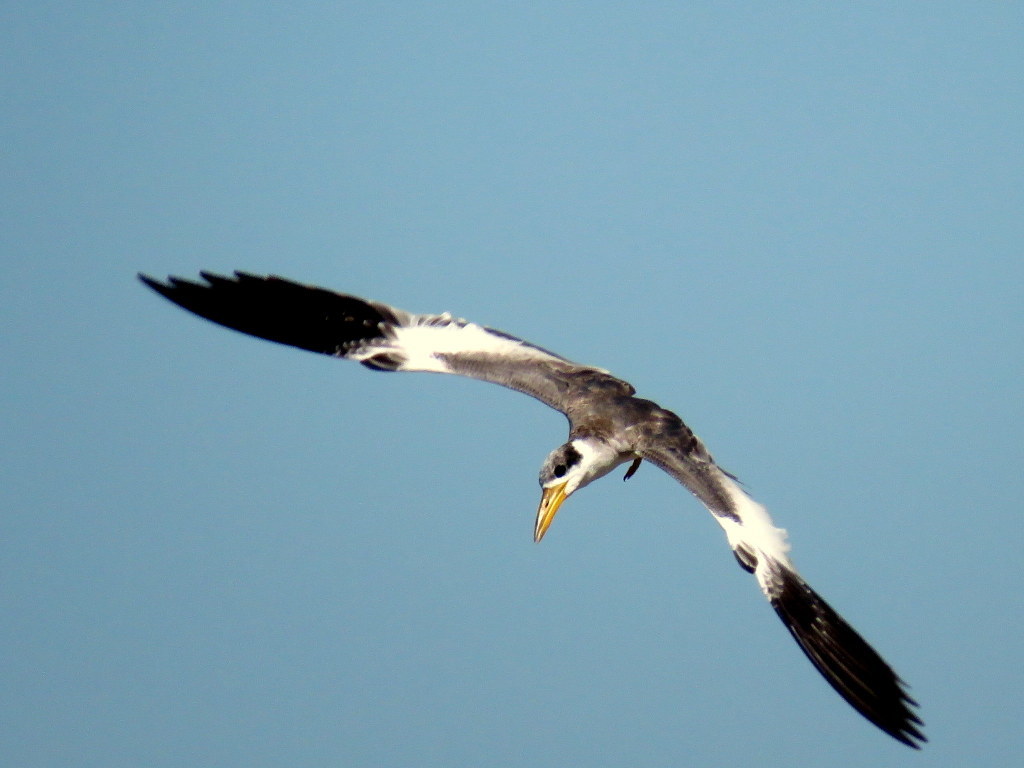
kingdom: Animalia
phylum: Chordata
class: Aves
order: Charadriiformes
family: Laridae
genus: Phaetusa
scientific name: Phaetusa simplex
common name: Large-billed tern
